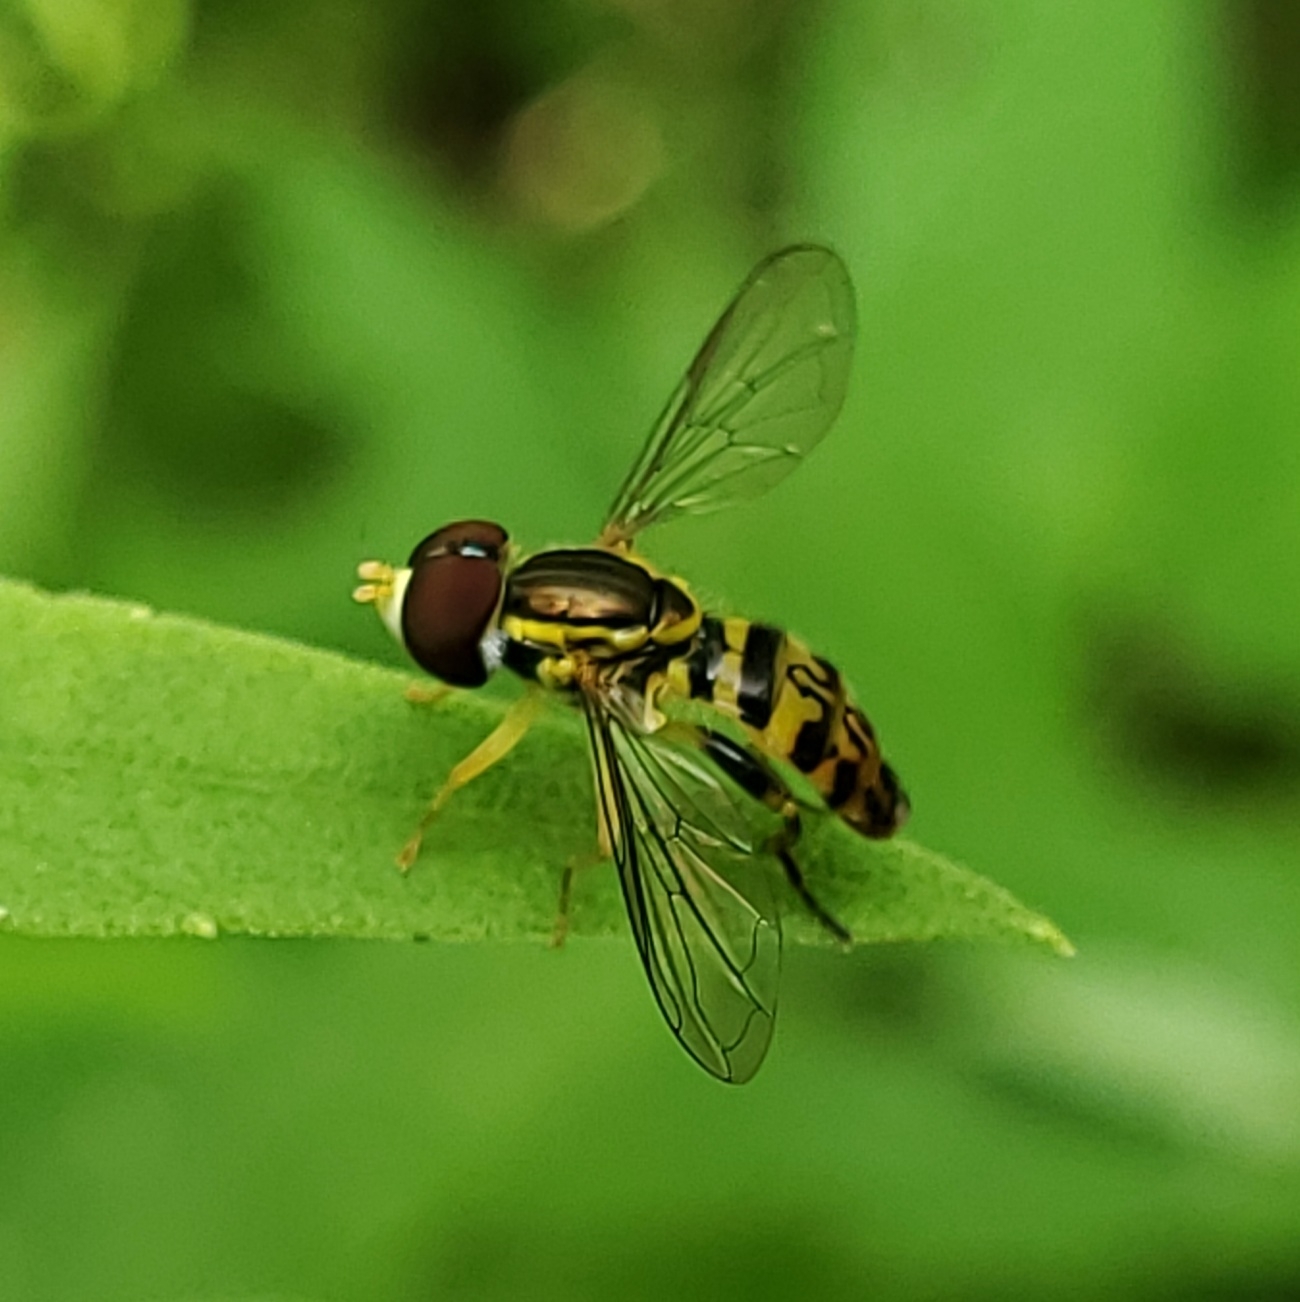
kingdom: Animalia
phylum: Arthropoda
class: Insecta
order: Diptera
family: Syrphidae
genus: Toxomerus
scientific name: Toxomerus geminatus
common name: Eastern calligrapher
